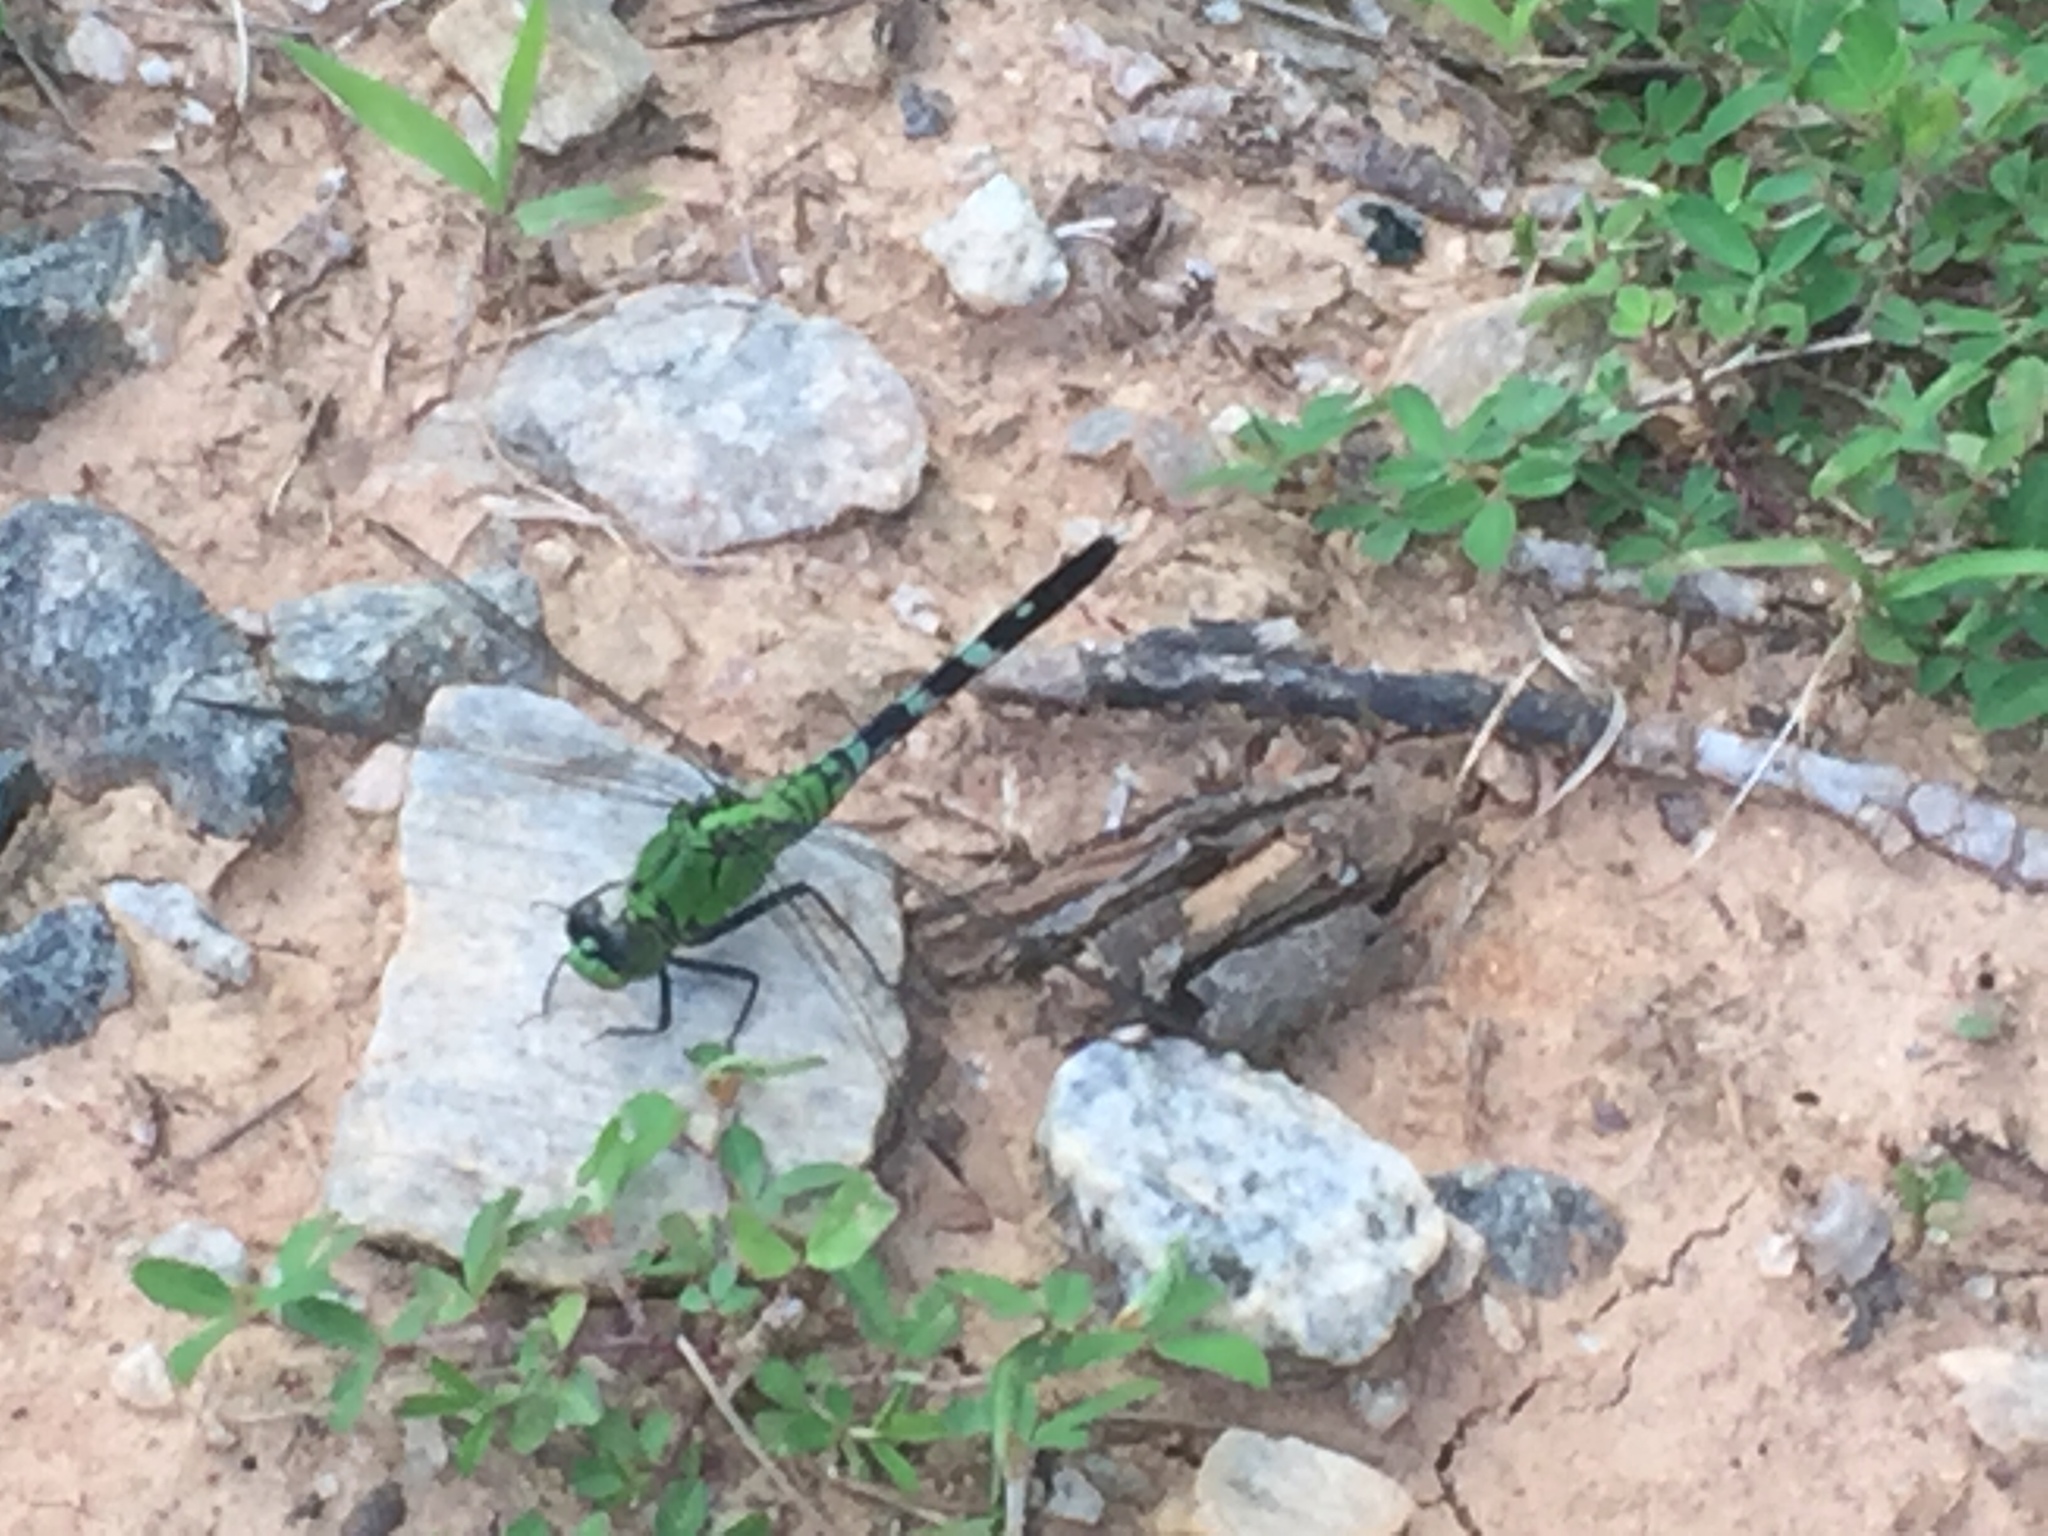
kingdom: Animalia
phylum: Arthropoda
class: Insecta
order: Odonata
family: Libellulidae
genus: Erythemis
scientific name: Erythemis simplicicollis
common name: Eastern pondhawk
